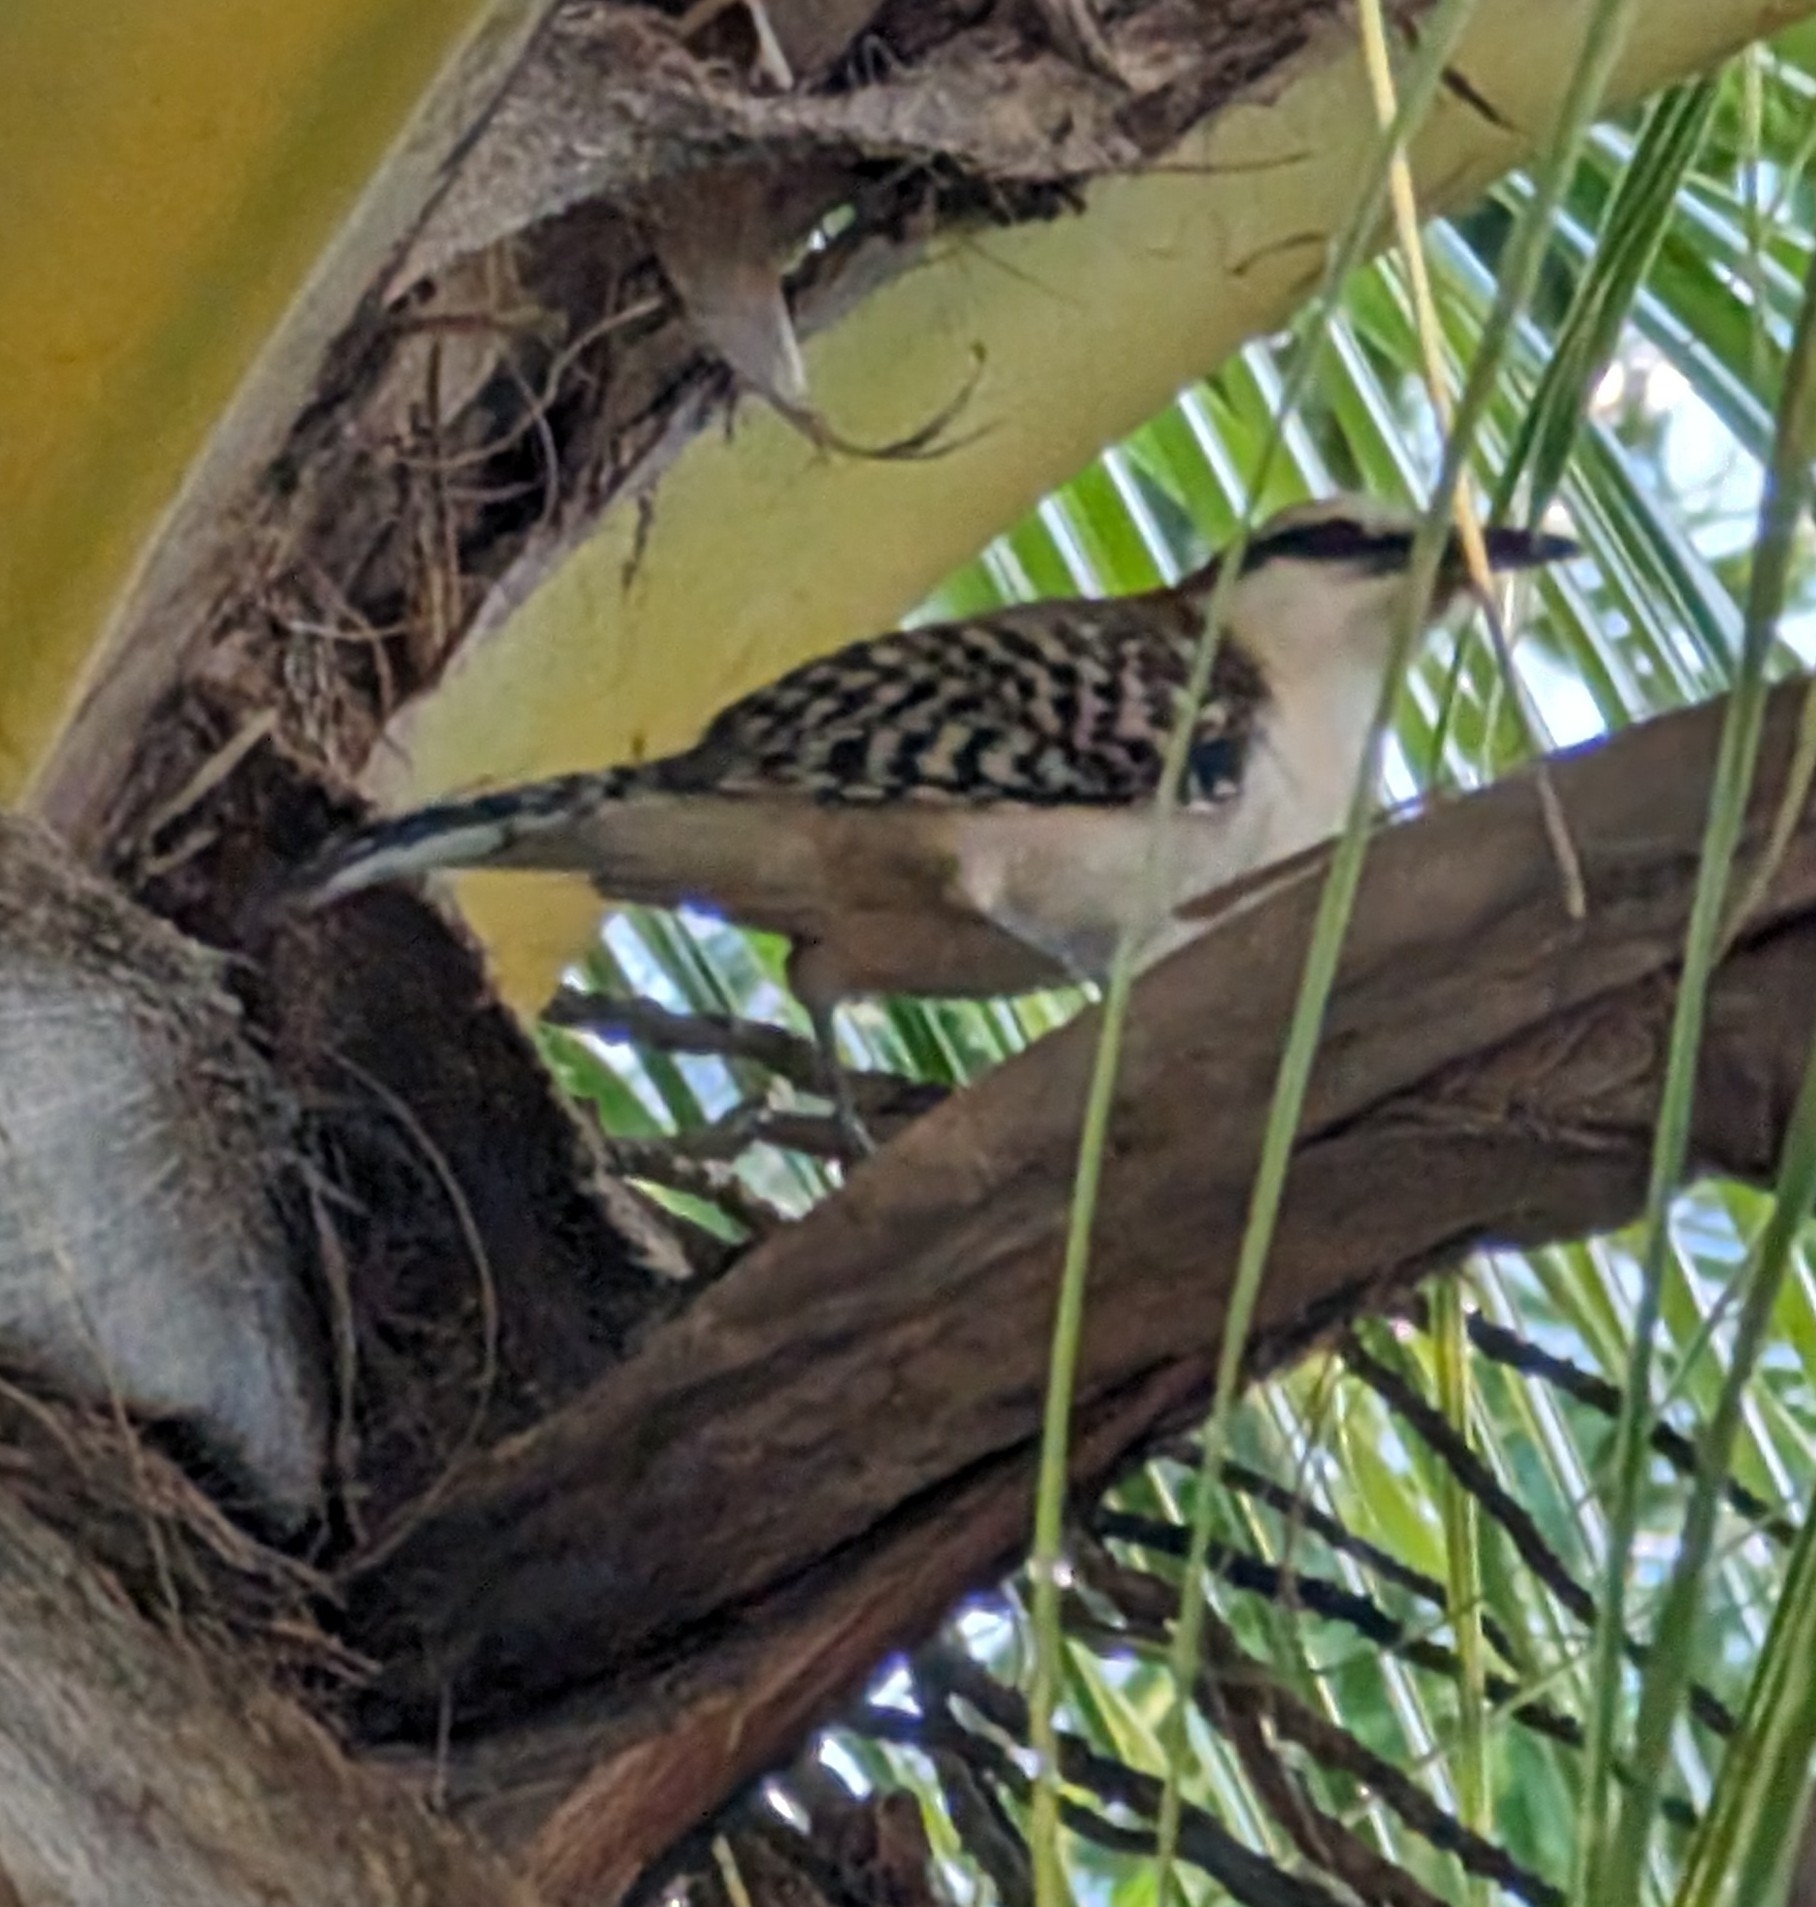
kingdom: Animalia
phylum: Chordata
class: Aves
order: Passeriformes
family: Troglodytidae
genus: Campylorhynchus
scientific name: Campylorhynchus rufinucha
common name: Rufous-naped wren
